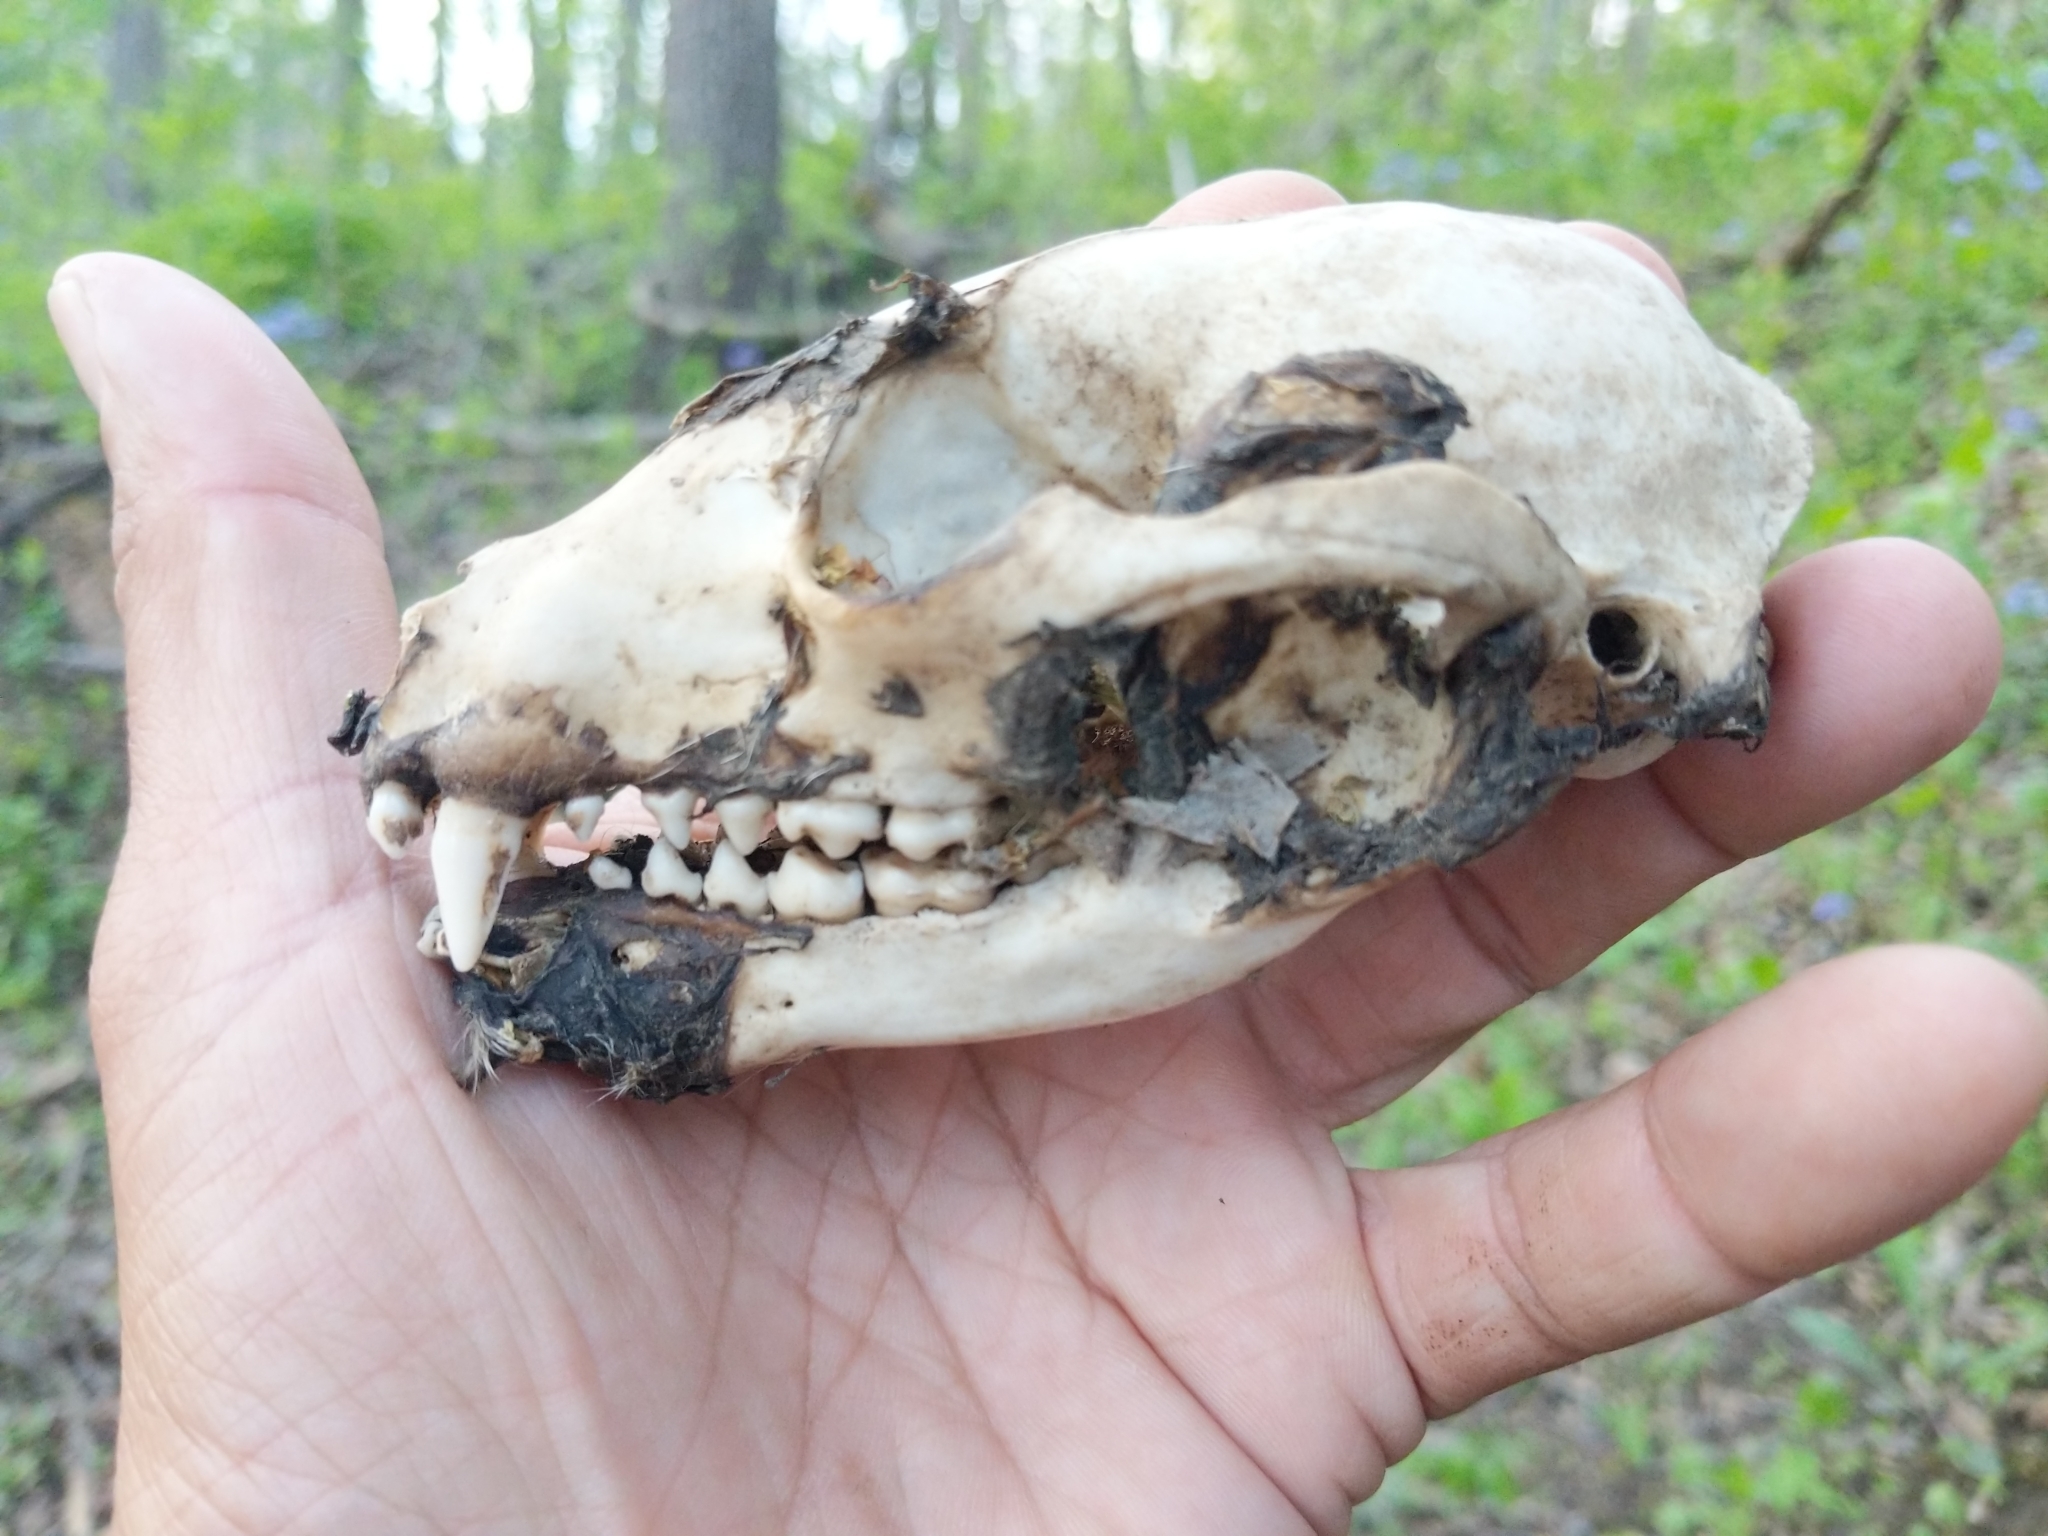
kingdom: Animalia
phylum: Chordata
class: Mammalia
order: Carnivora
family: Procyonidae
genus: Procyon
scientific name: Procyon lotor
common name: Raccoon
